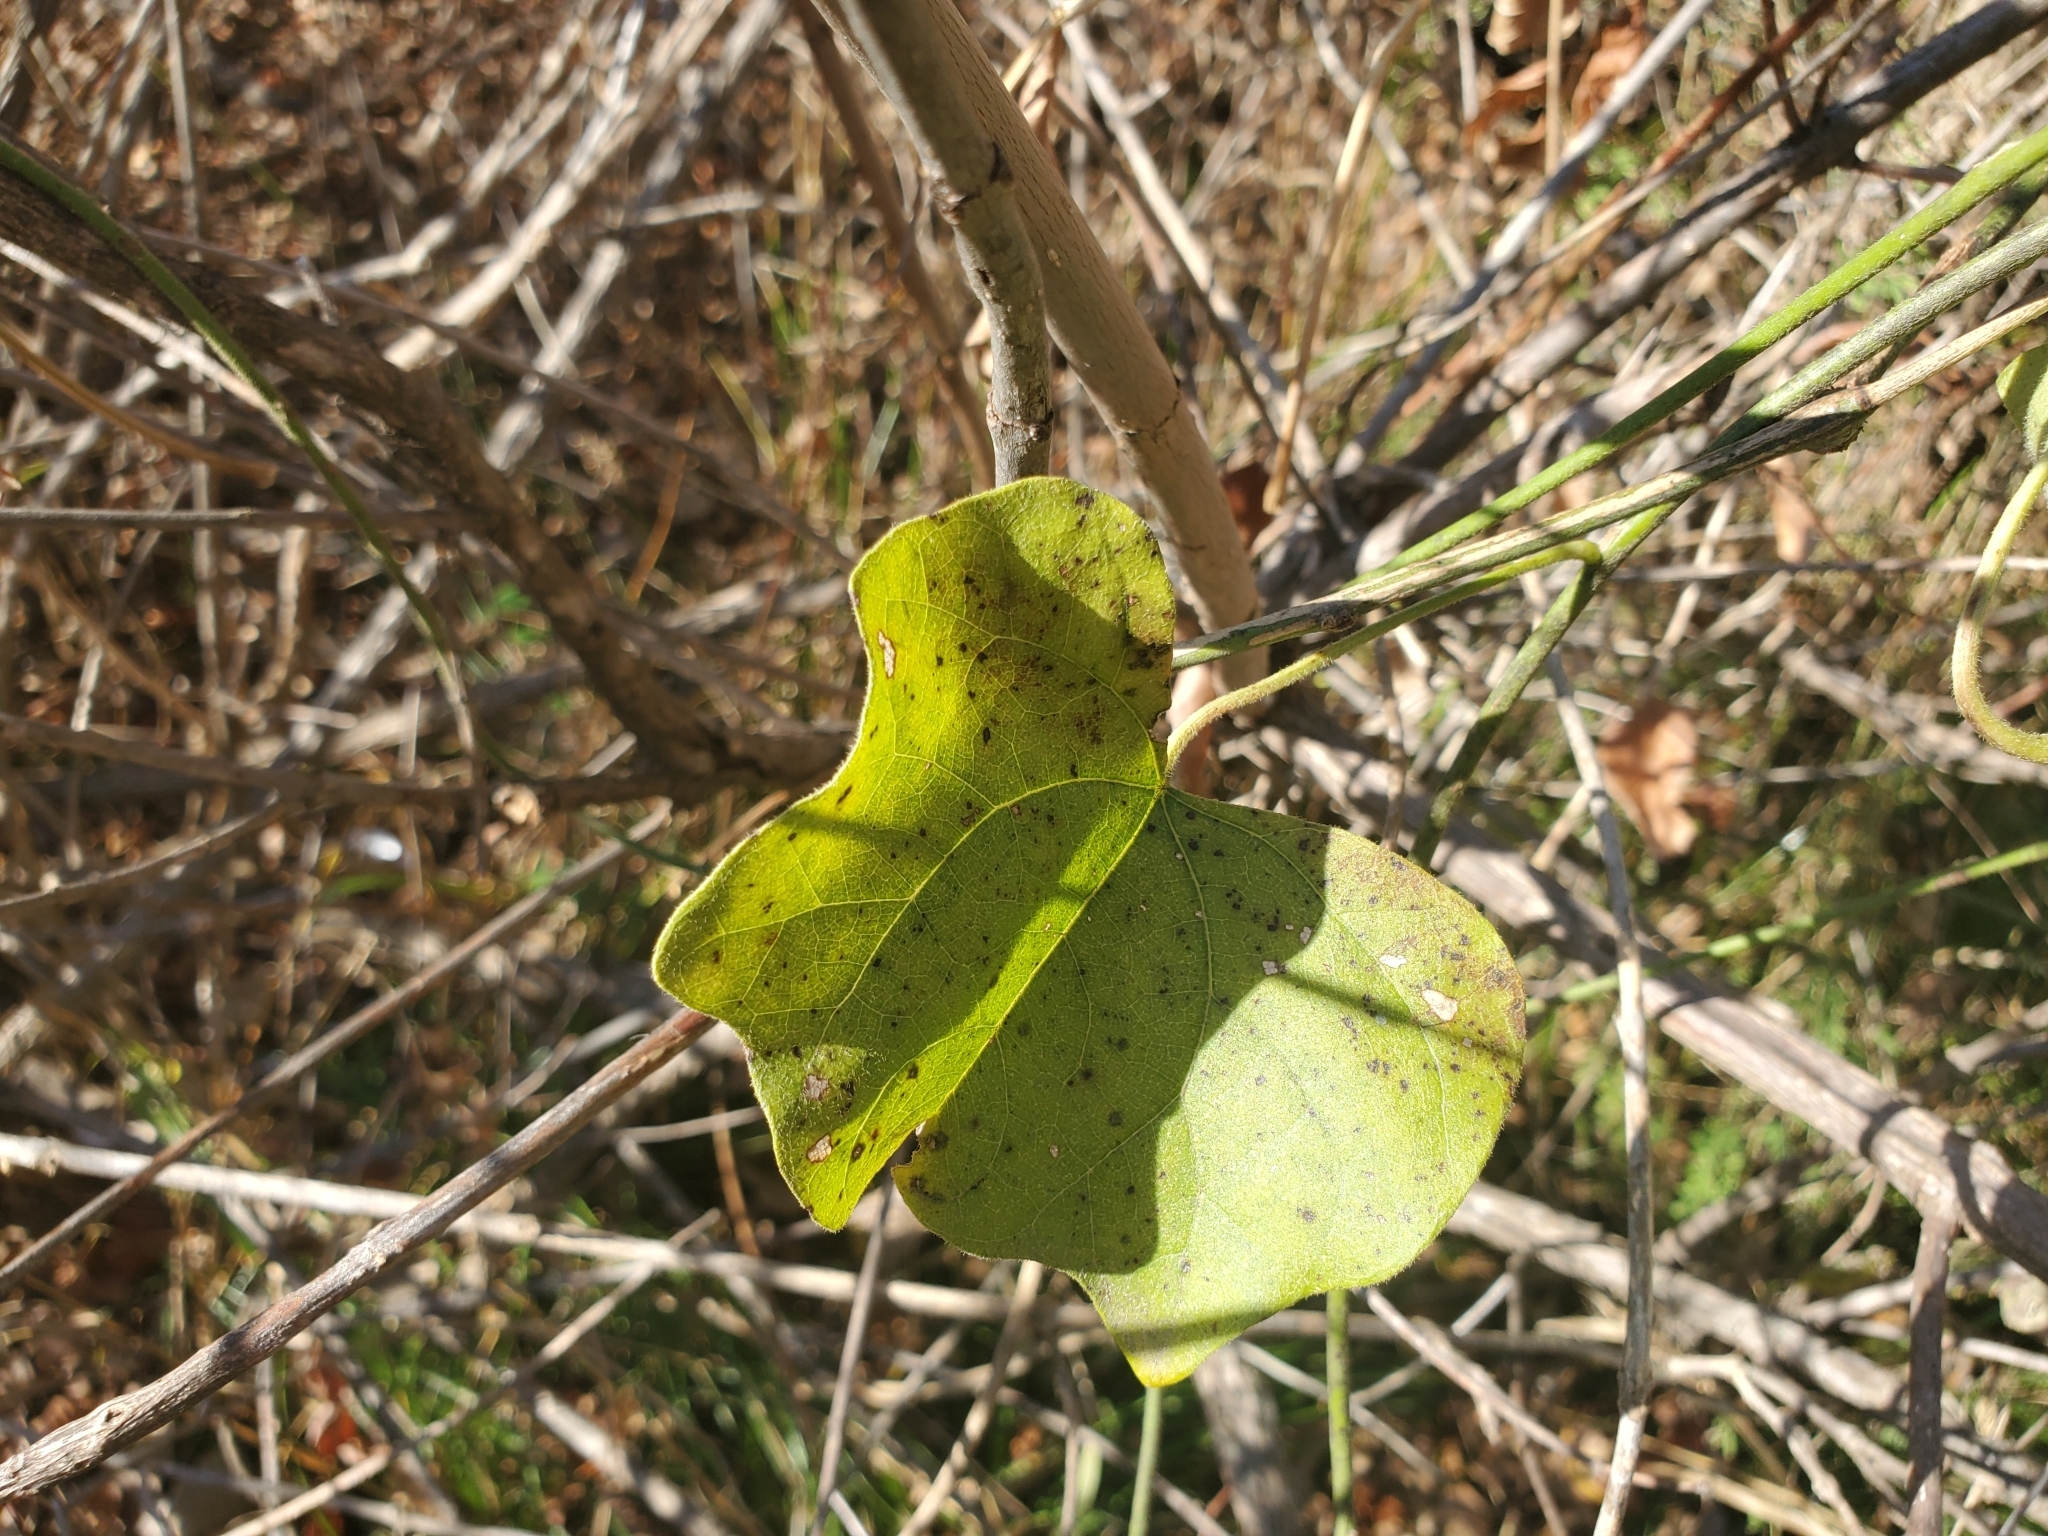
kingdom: Plantae
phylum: Tracheophyta
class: Magnoliopsida
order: Ranunculales
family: Menispermaceae
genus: Cocculus
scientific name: Cocculus carolinus
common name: Carolina moonseed
